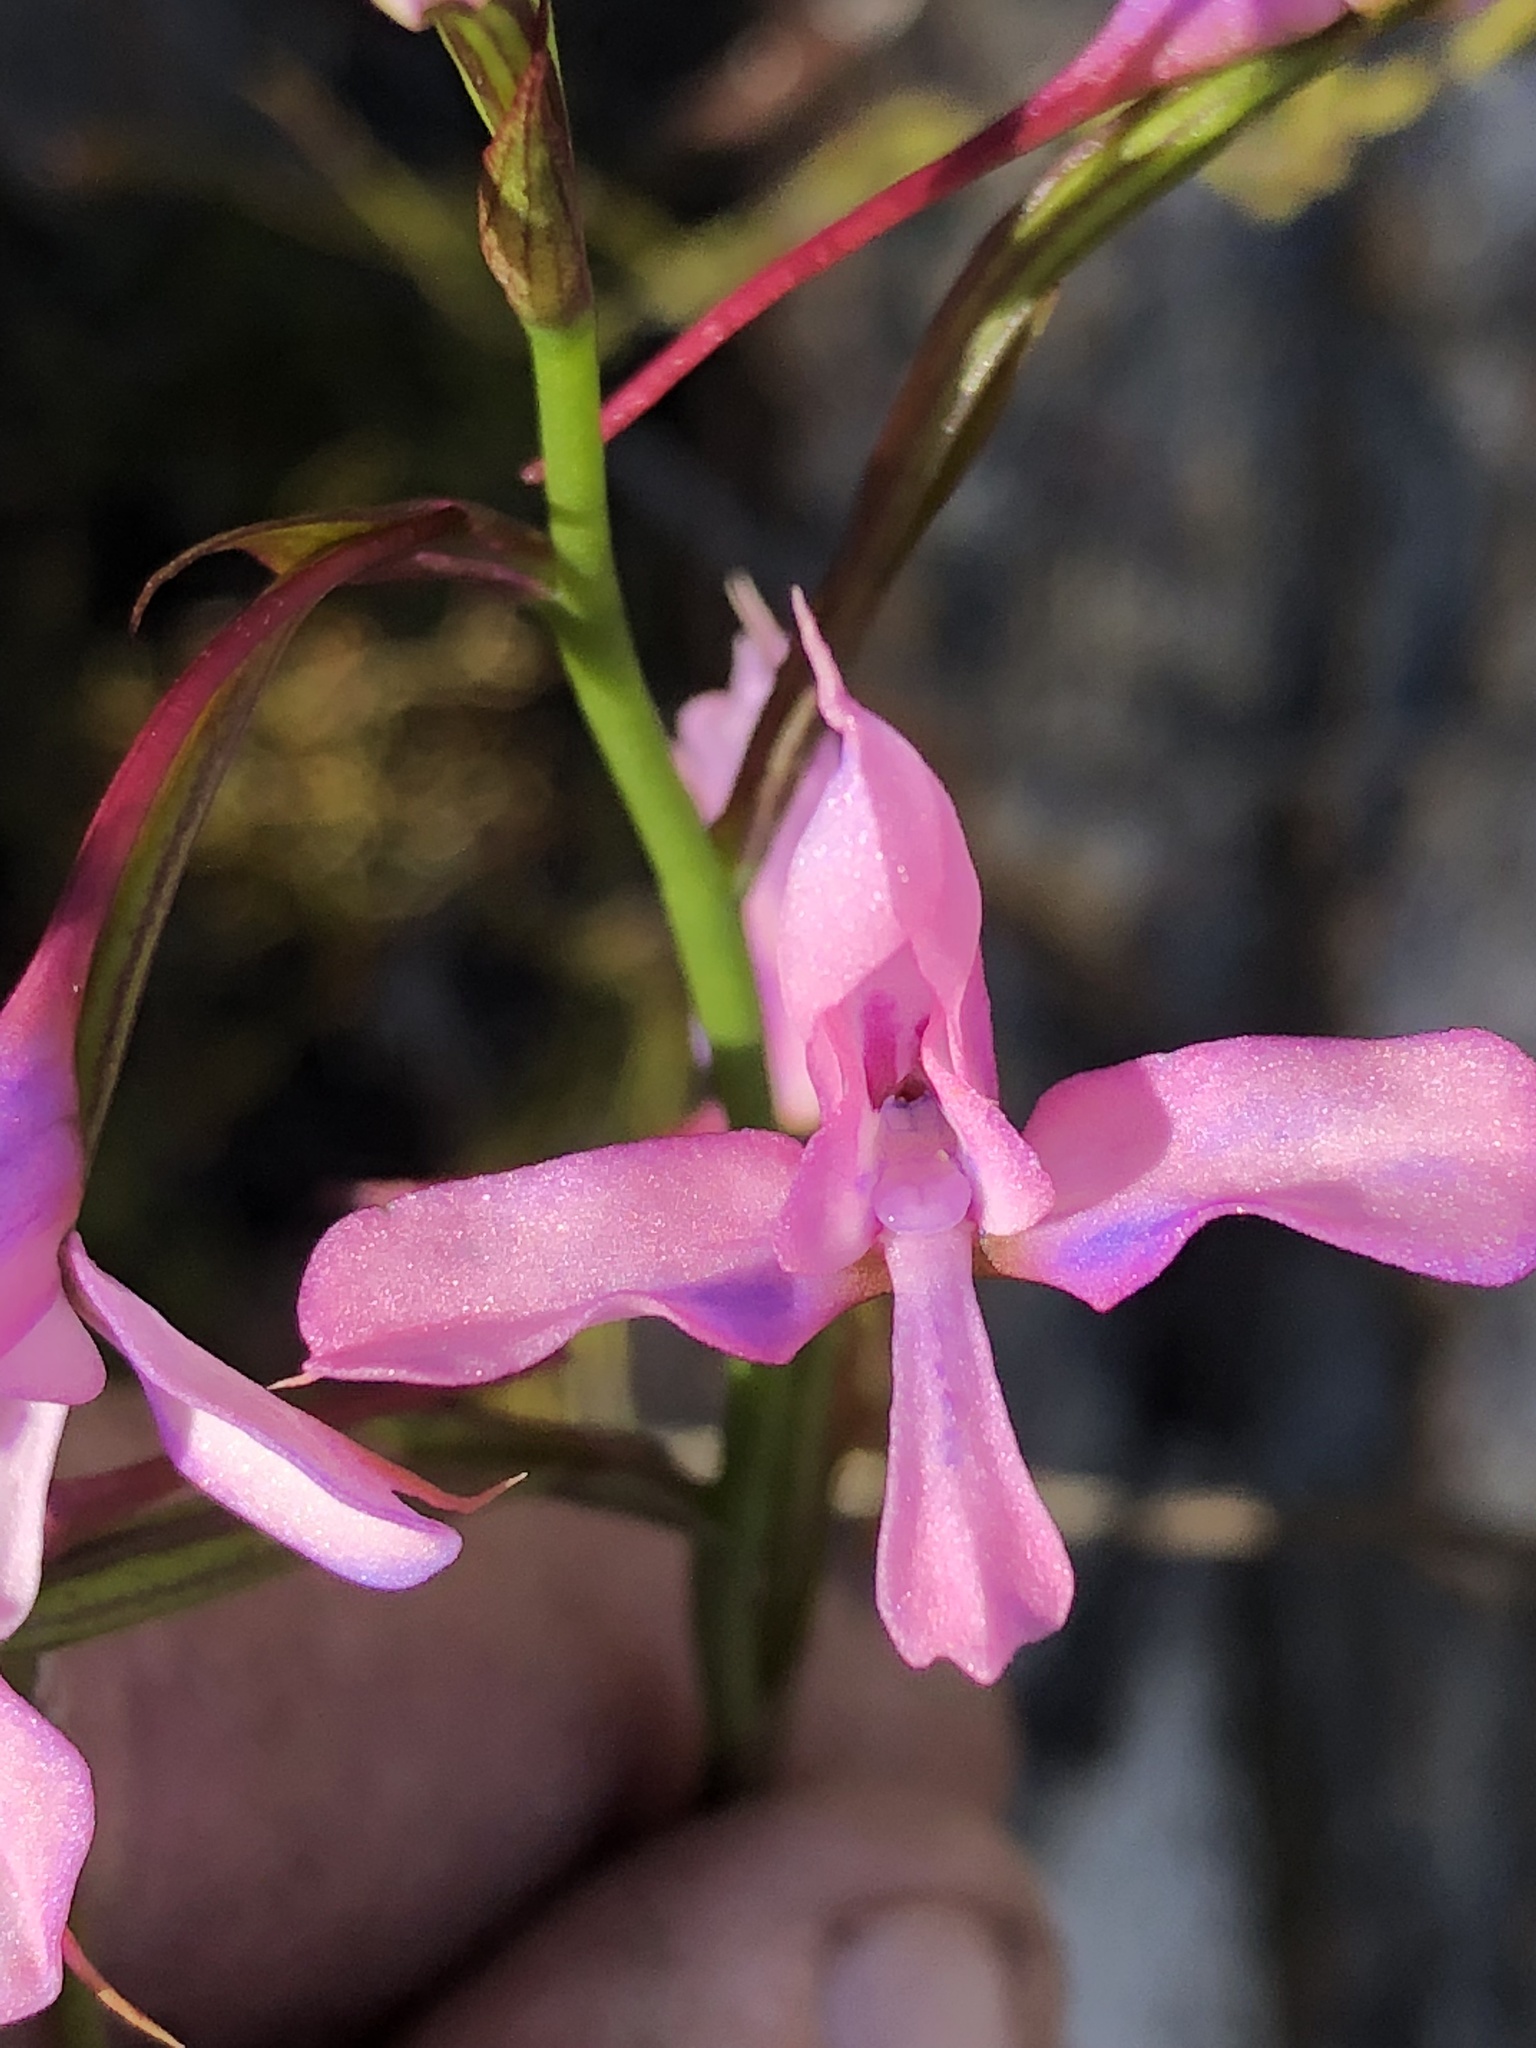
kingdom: Plantae
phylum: Tracheophyta
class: Liliopsida
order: Asparagales
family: Orchidaceae
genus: Disa
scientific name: Disa arida
